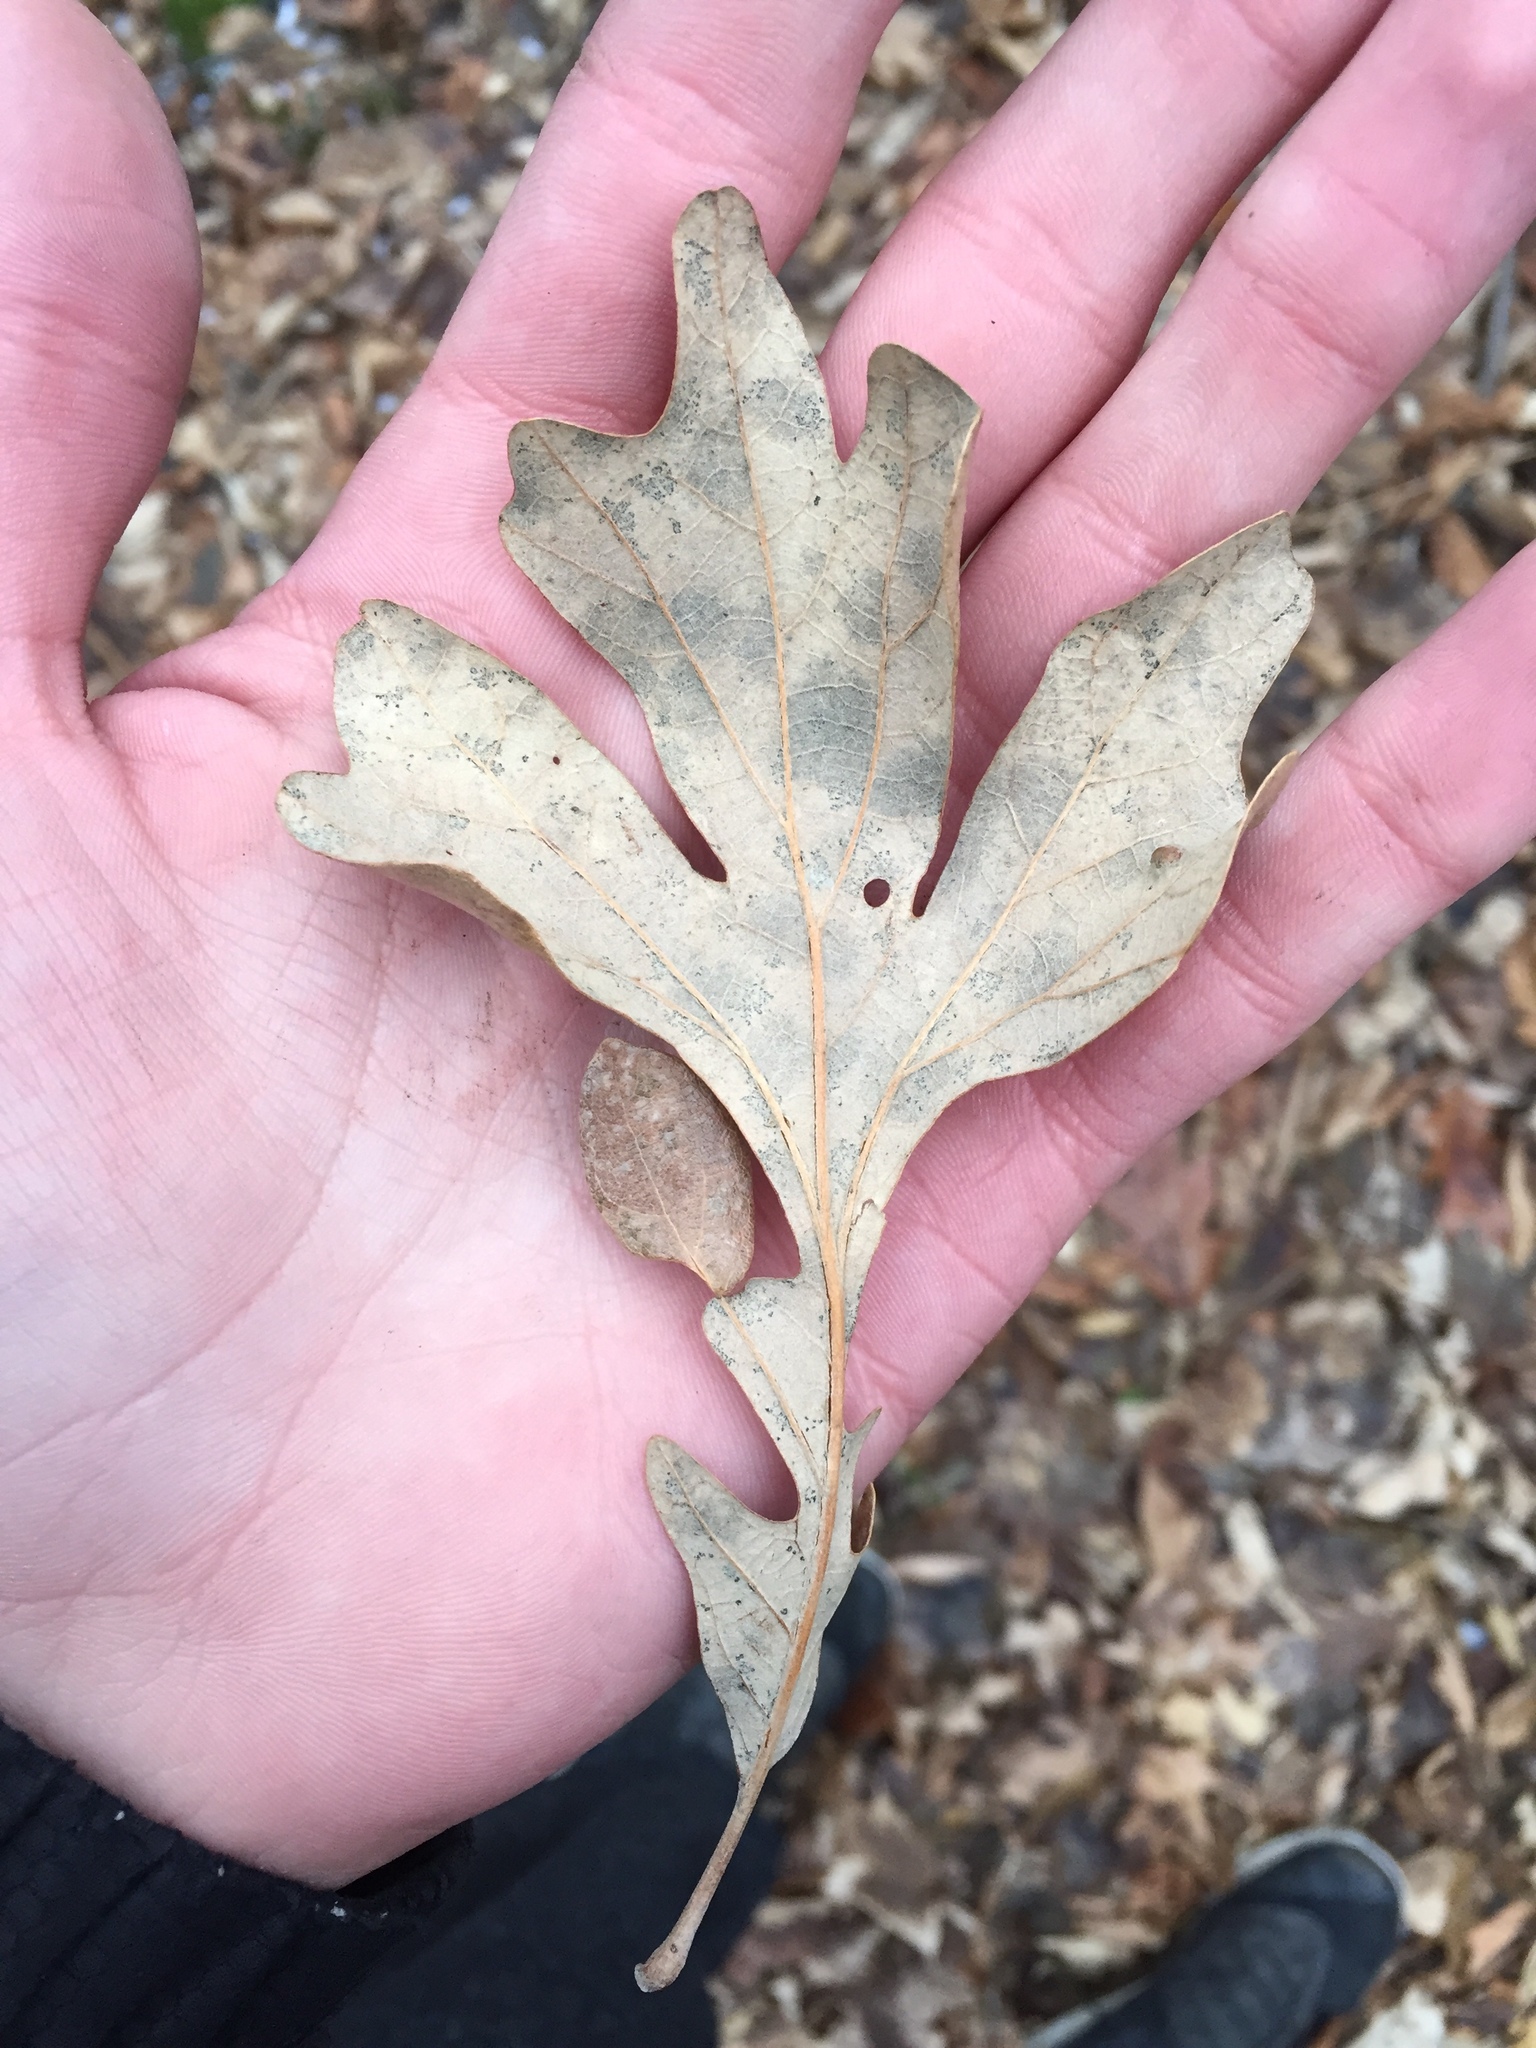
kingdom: Plantae
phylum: Tracheophyta
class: Magnoliopsida
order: Fagales
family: Fagaceae
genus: Quercus
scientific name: Quercus macrocarpa
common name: Bur oak
